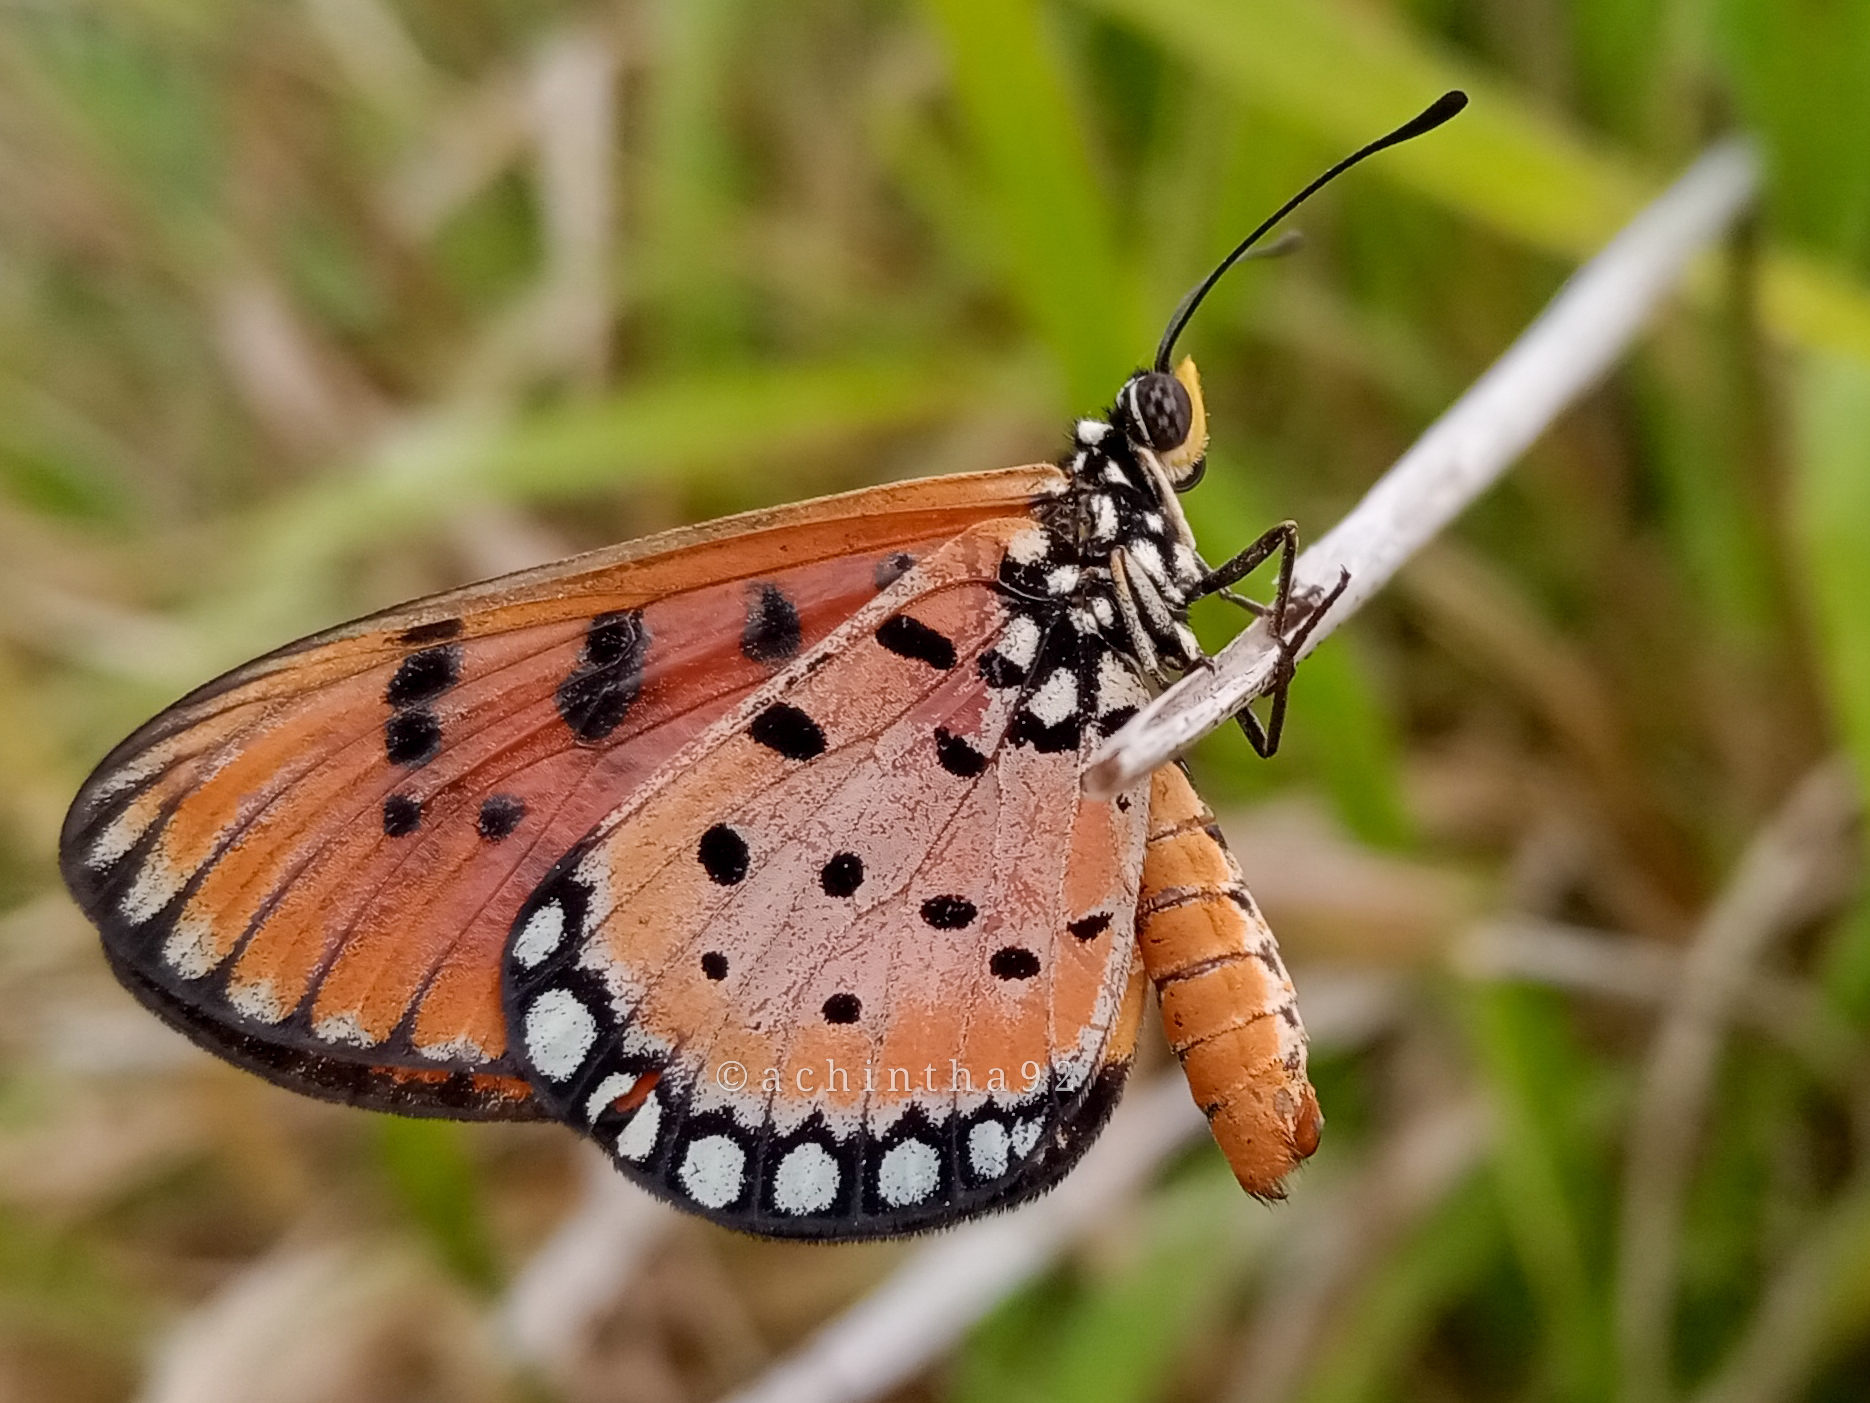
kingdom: Animalia
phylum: Arthropoda
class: Insecta
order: Lepidoptera
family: Nymphalidae
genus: Acraea
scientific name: Acraea terpsicore
